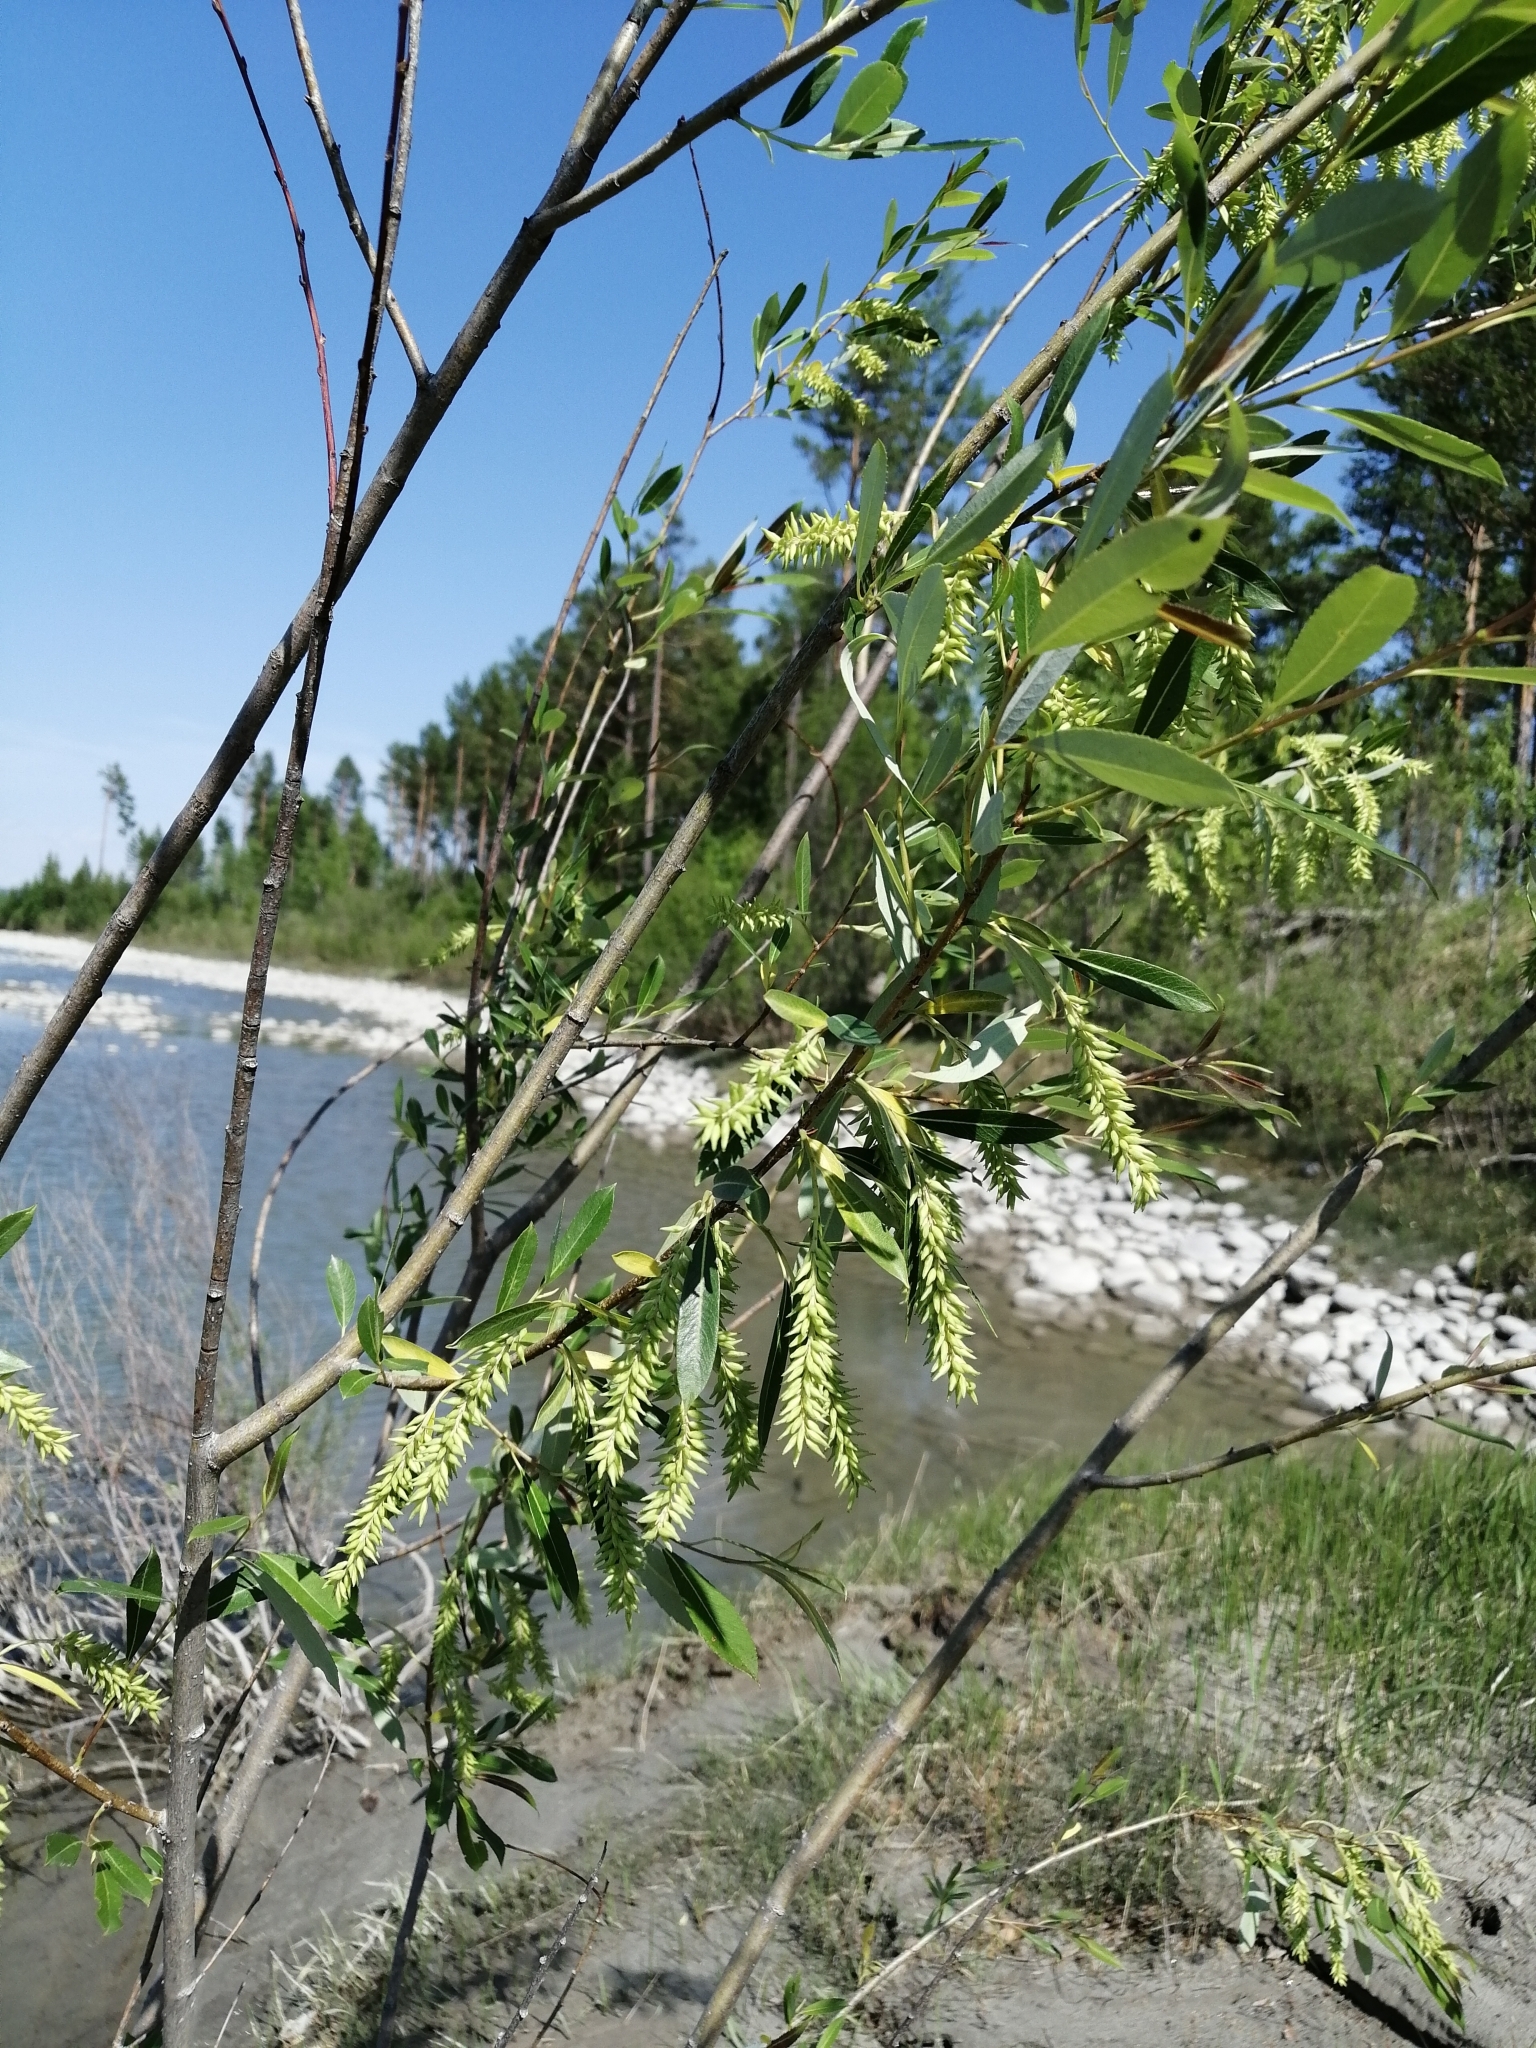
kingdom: Plantae
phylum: Tracheophyta
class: Magnoliopsida
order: Malpighiales
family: Salicaceae
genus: Salix
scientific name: Salix pseudopentandra
